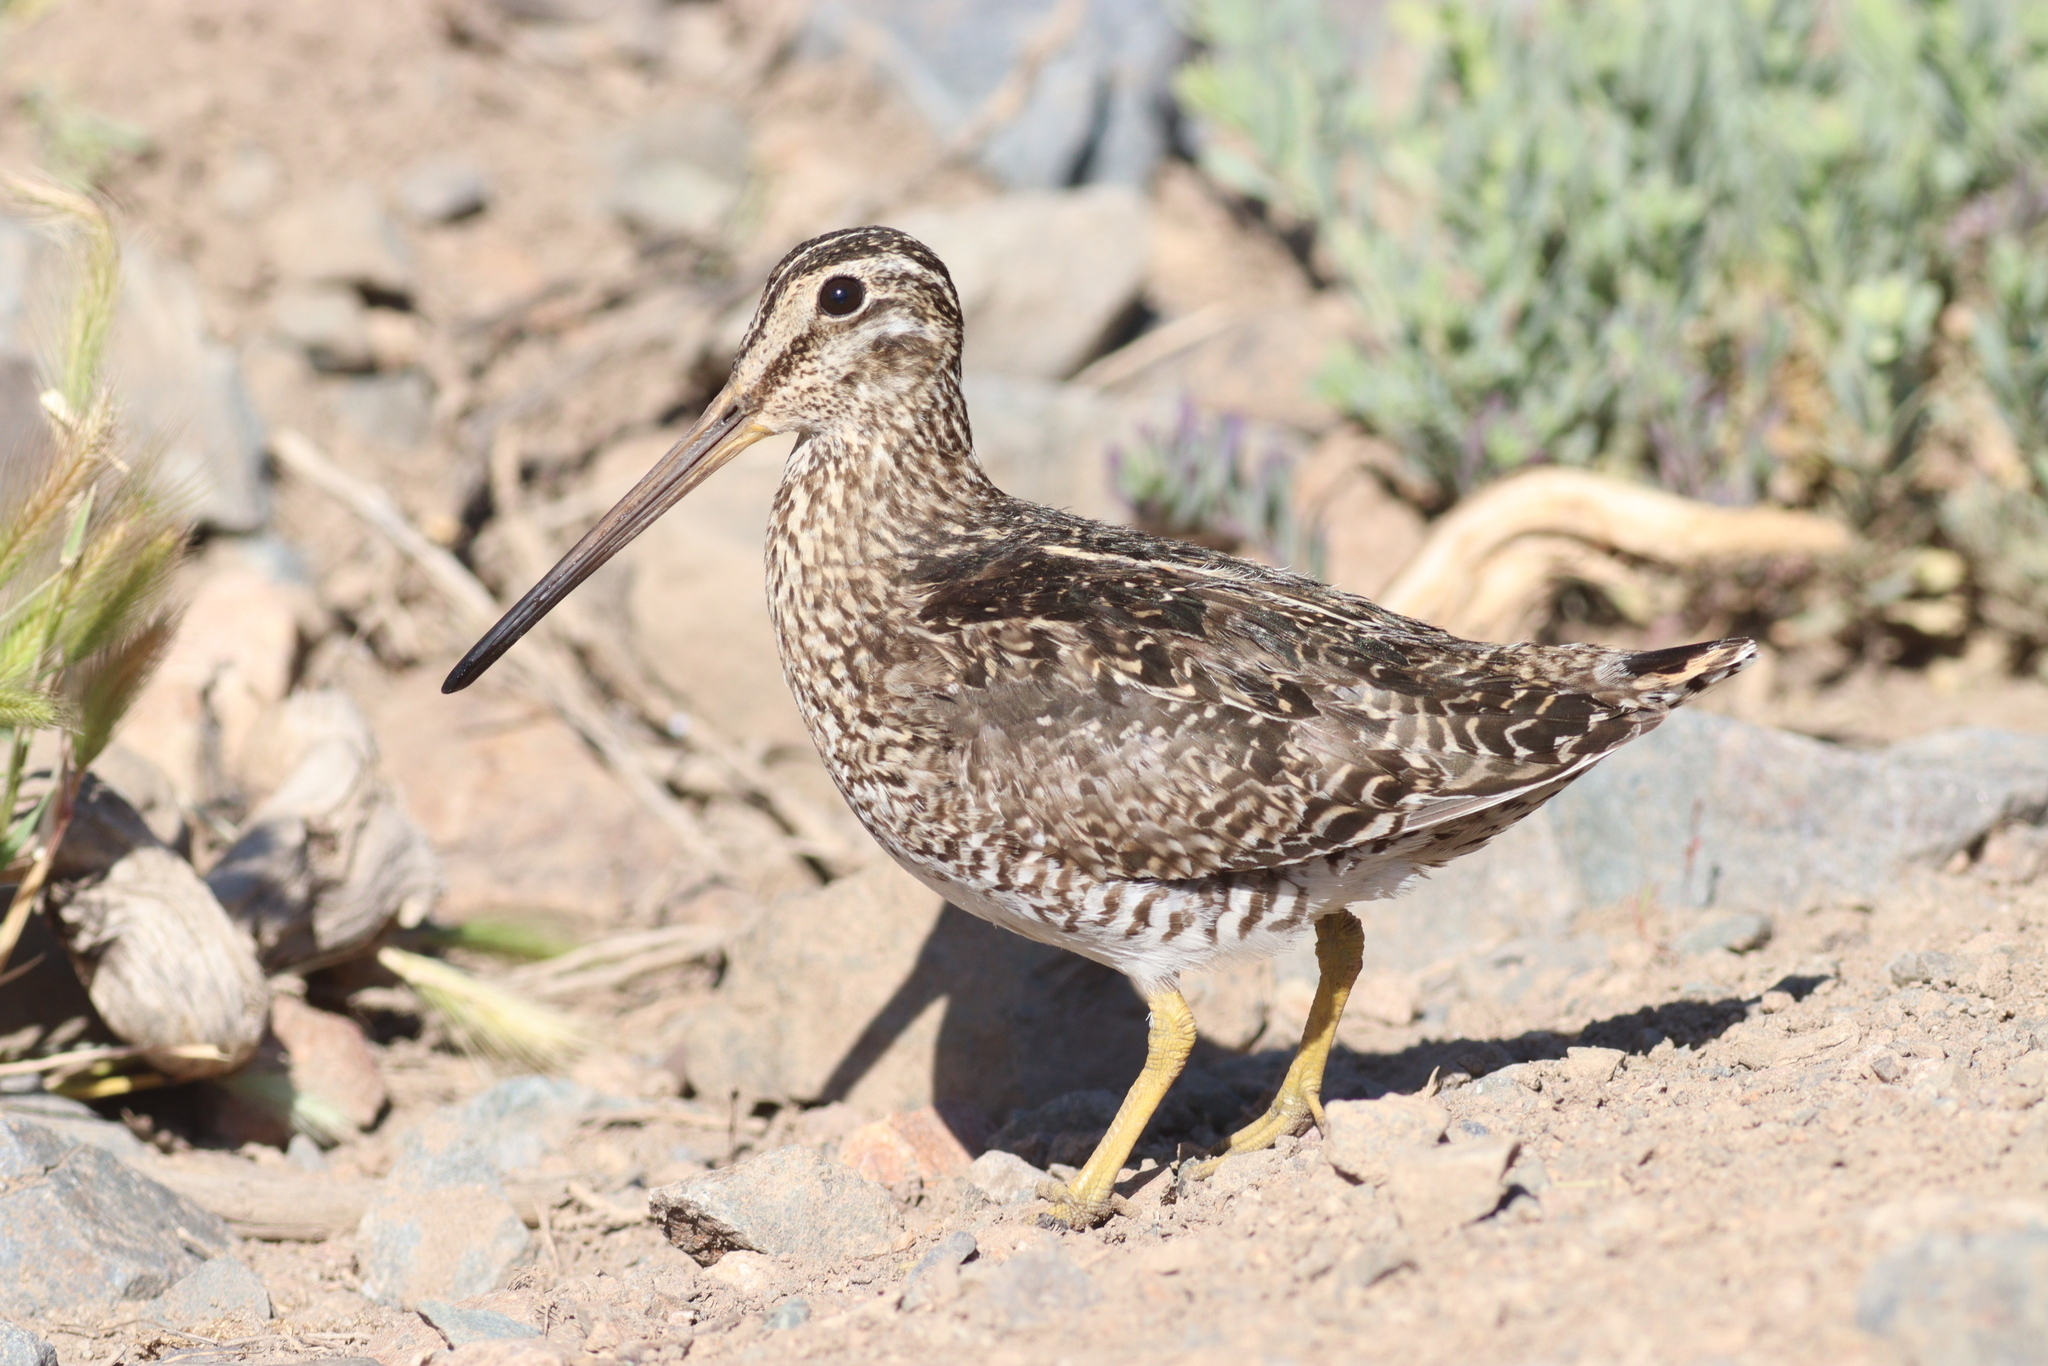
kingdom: Animalia
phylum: Chordata
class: Aves
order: Charadriiformes
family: Scolopacidae
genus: Gallinago
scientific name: Gallinago magellanica
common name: Magellanic snipe
